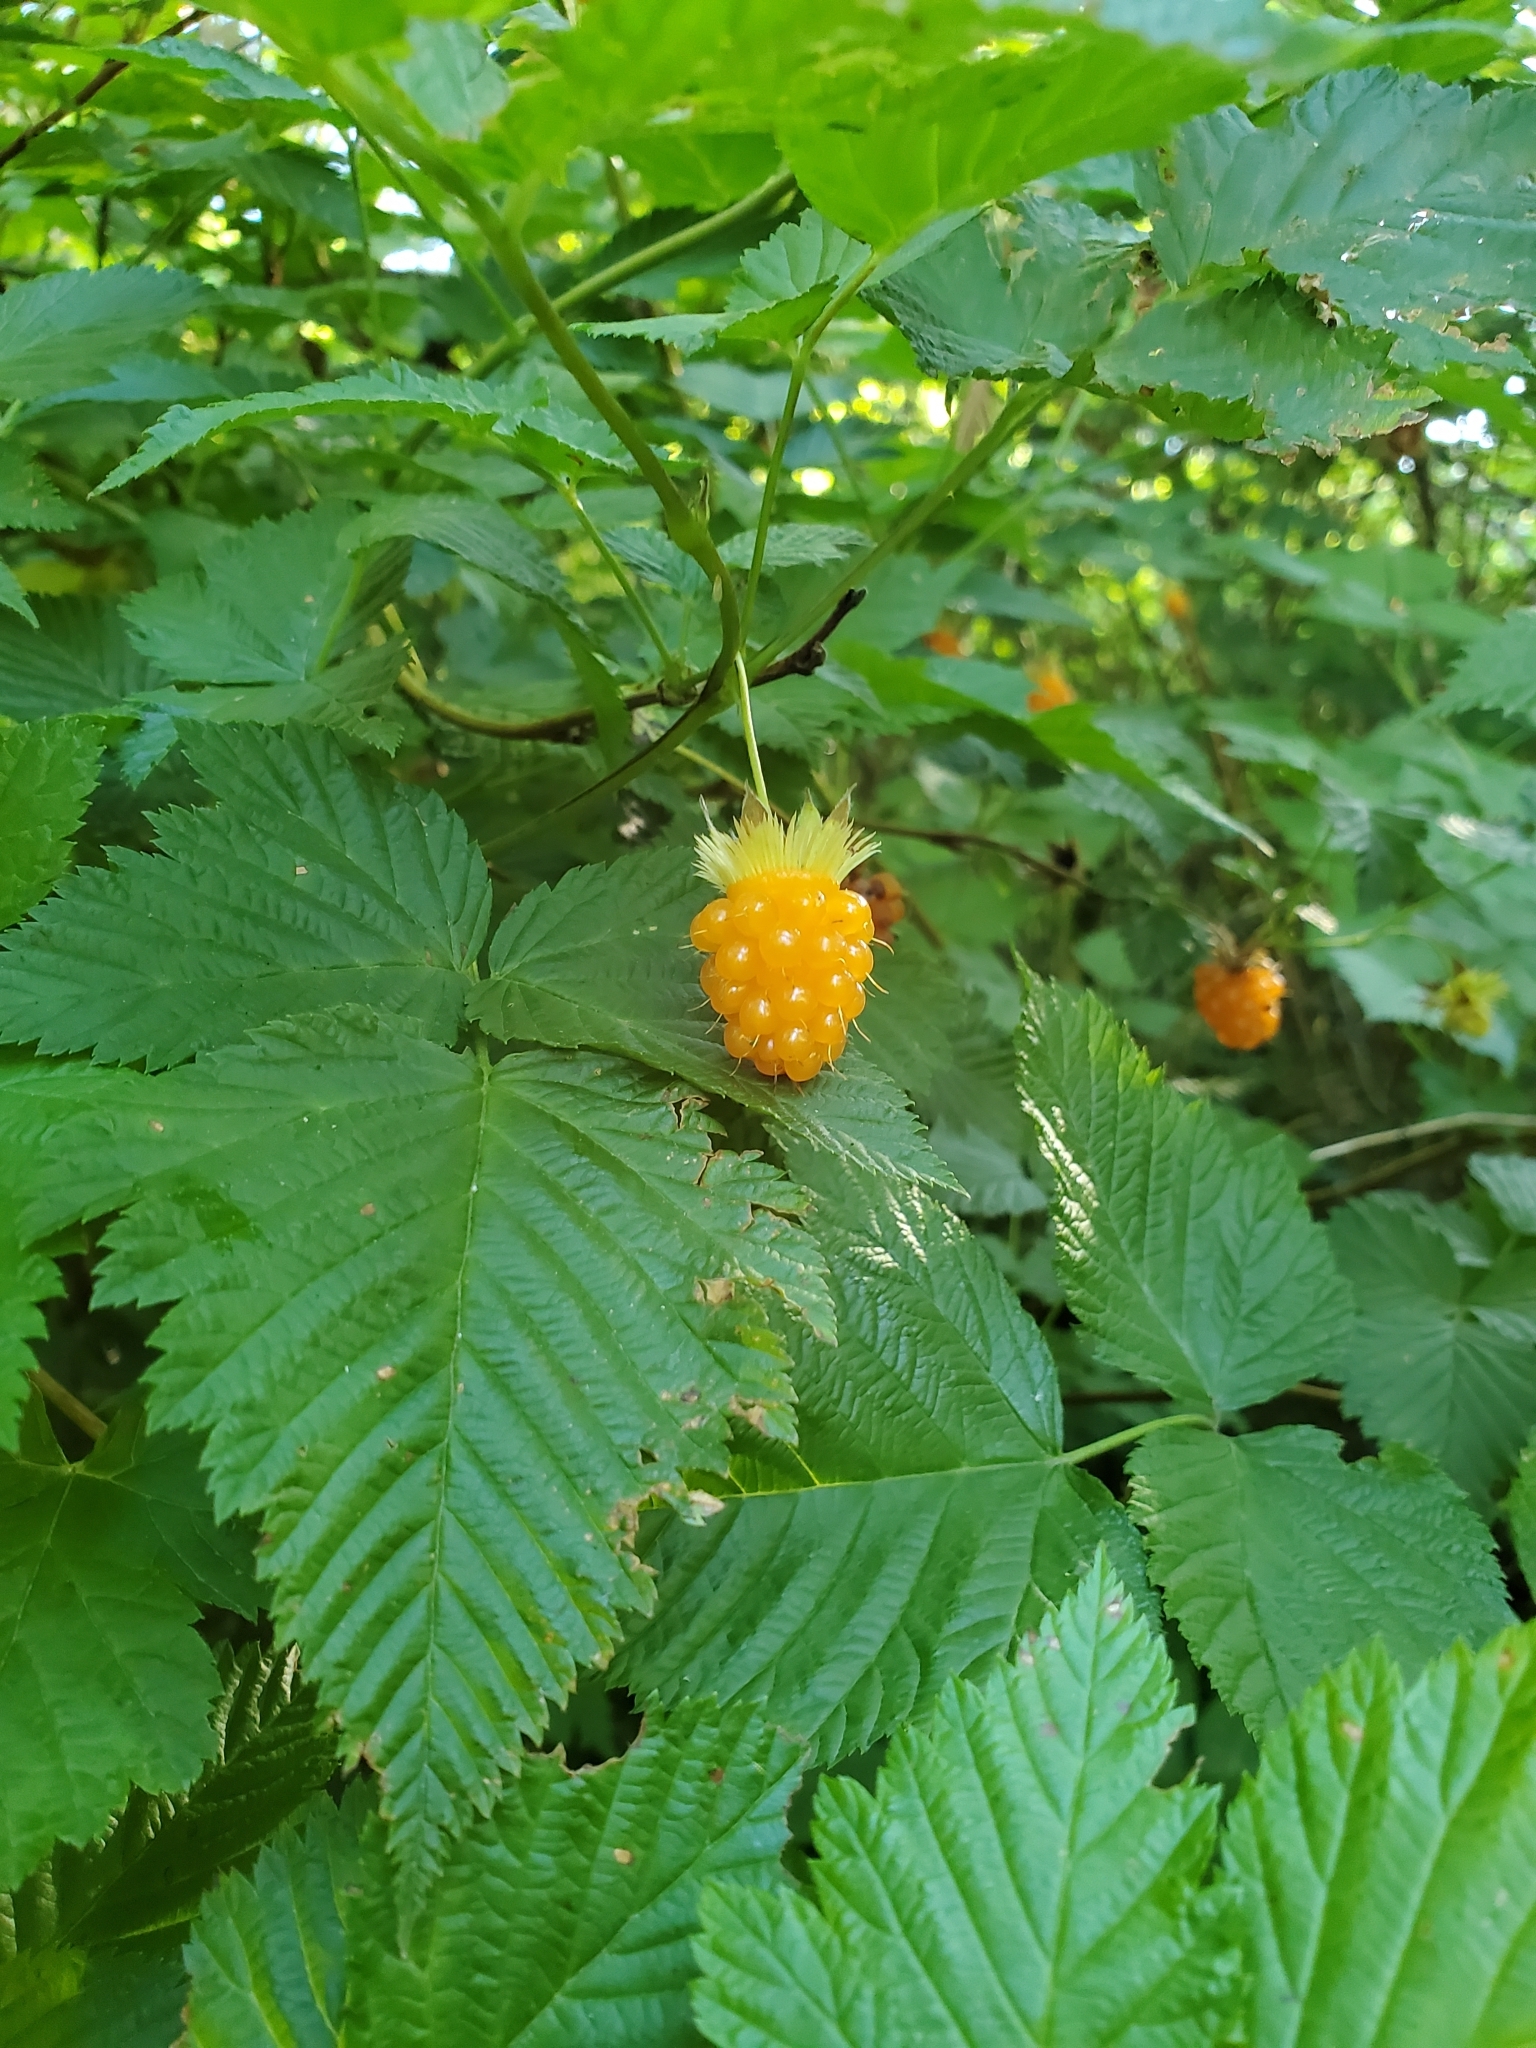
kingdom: Plantae
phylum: Tracheophyta
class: Magnoliopsida
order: Rosales
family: Rosaceae
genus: Rubus
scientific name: Rubus spectabilis
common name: Salmonberry
